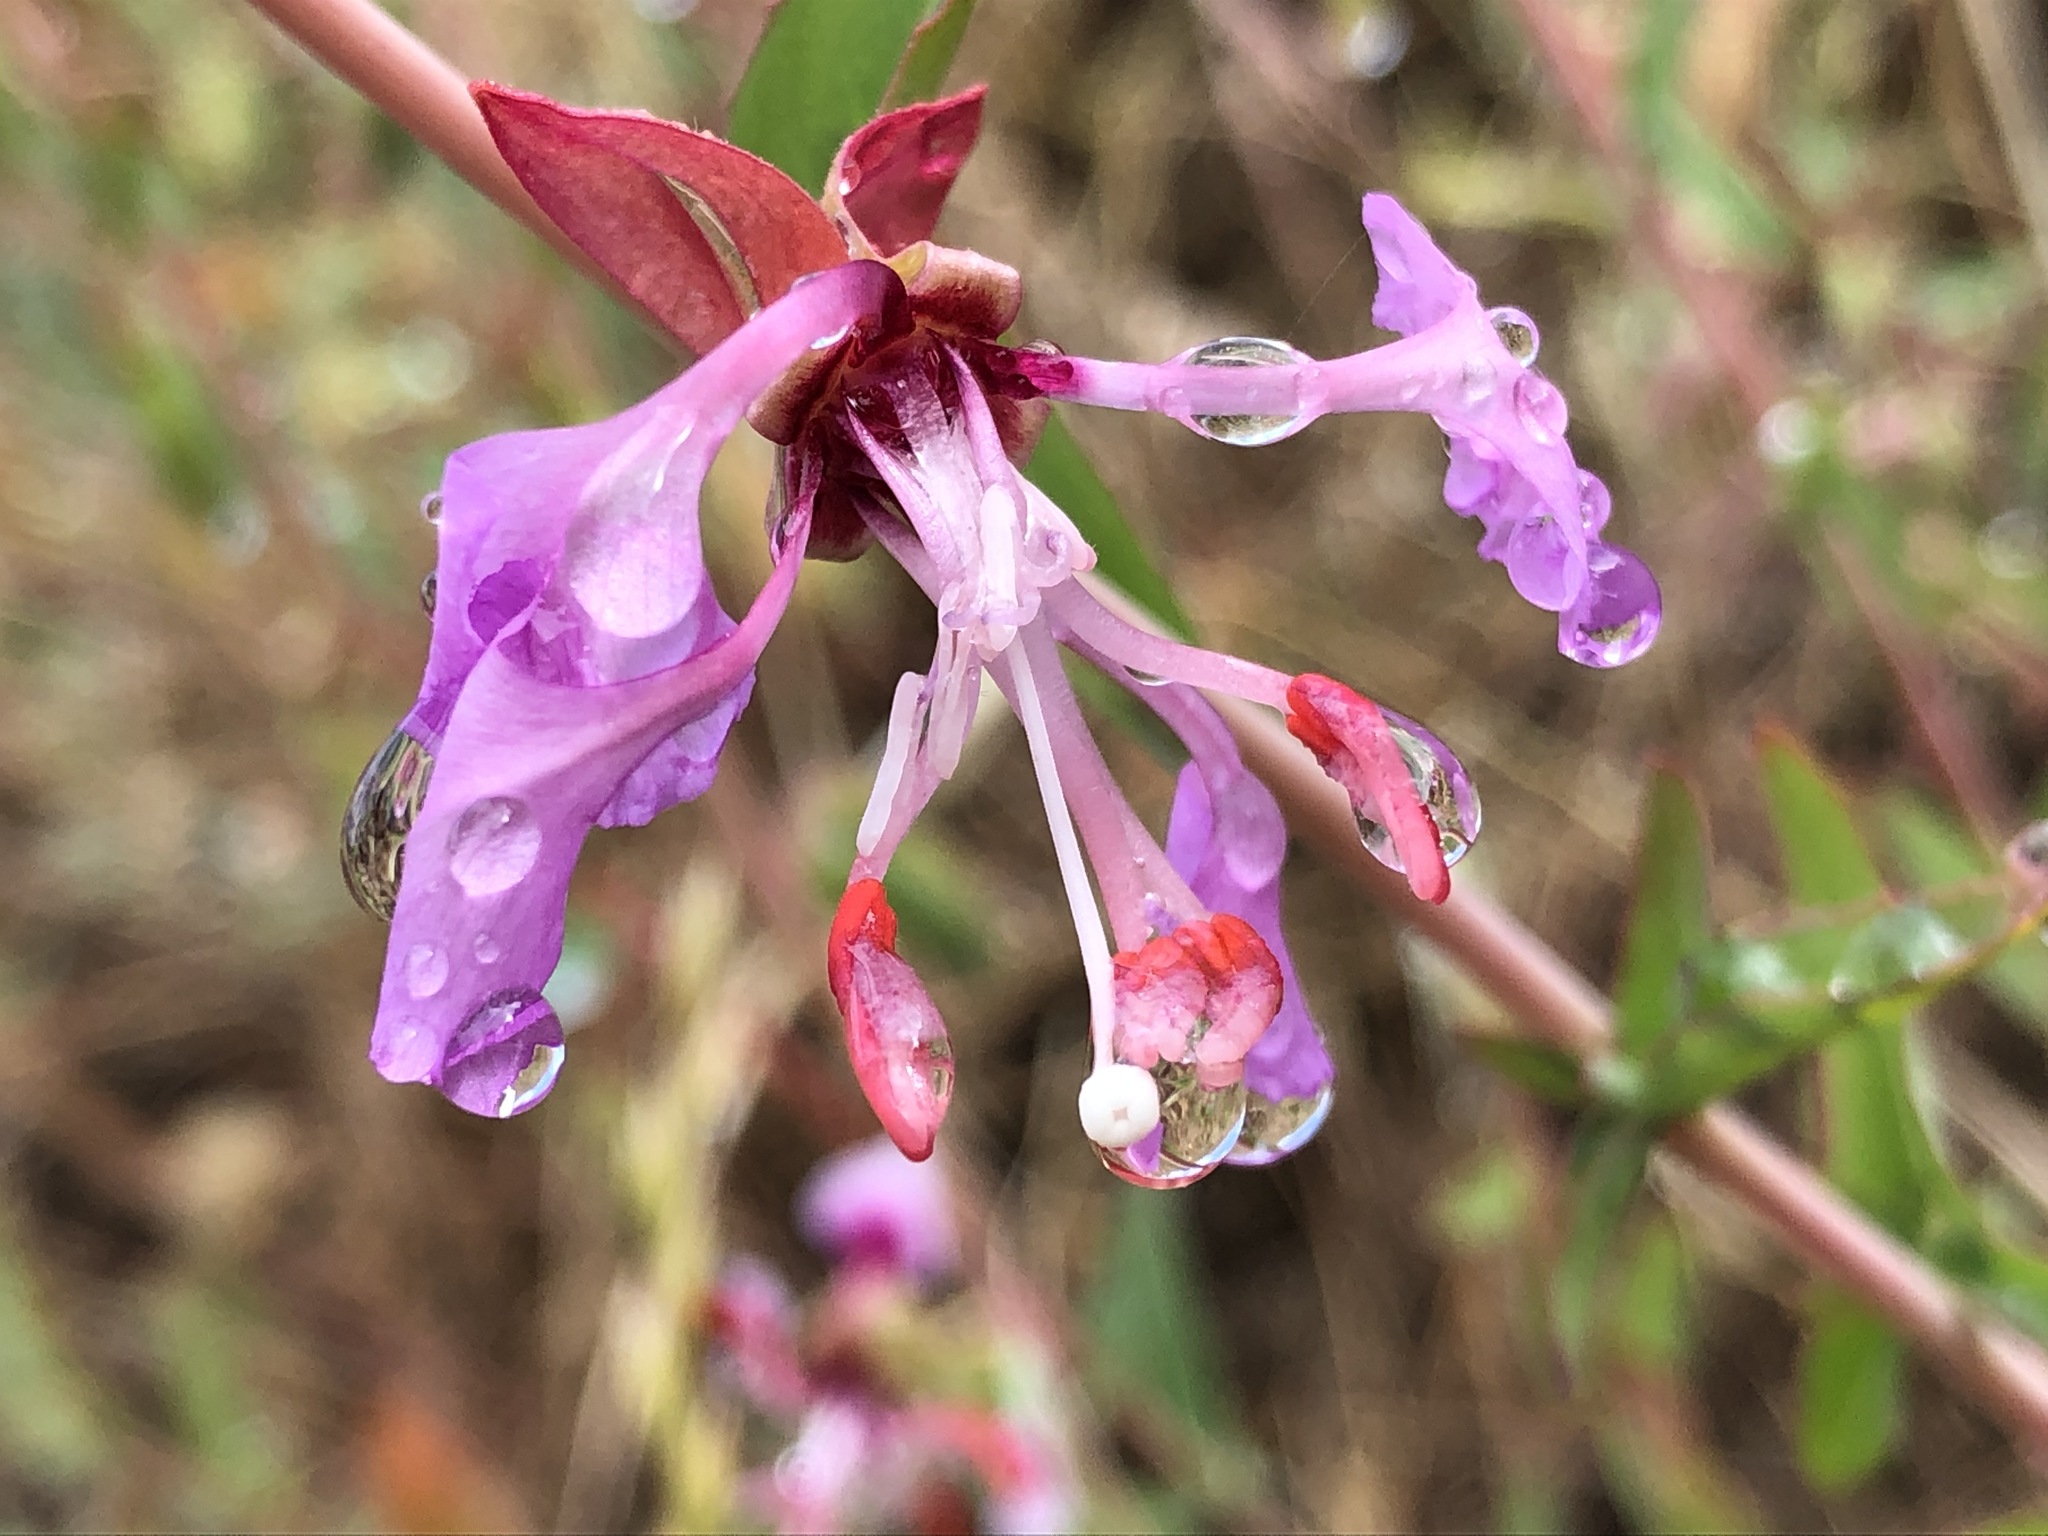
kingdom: Plantae
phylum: Tracheophyta
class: Magnoliopsida
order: Myrtales
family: Onagraceae
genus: Clarkia
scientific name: Clarkia unguiculata
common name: Clarkia
